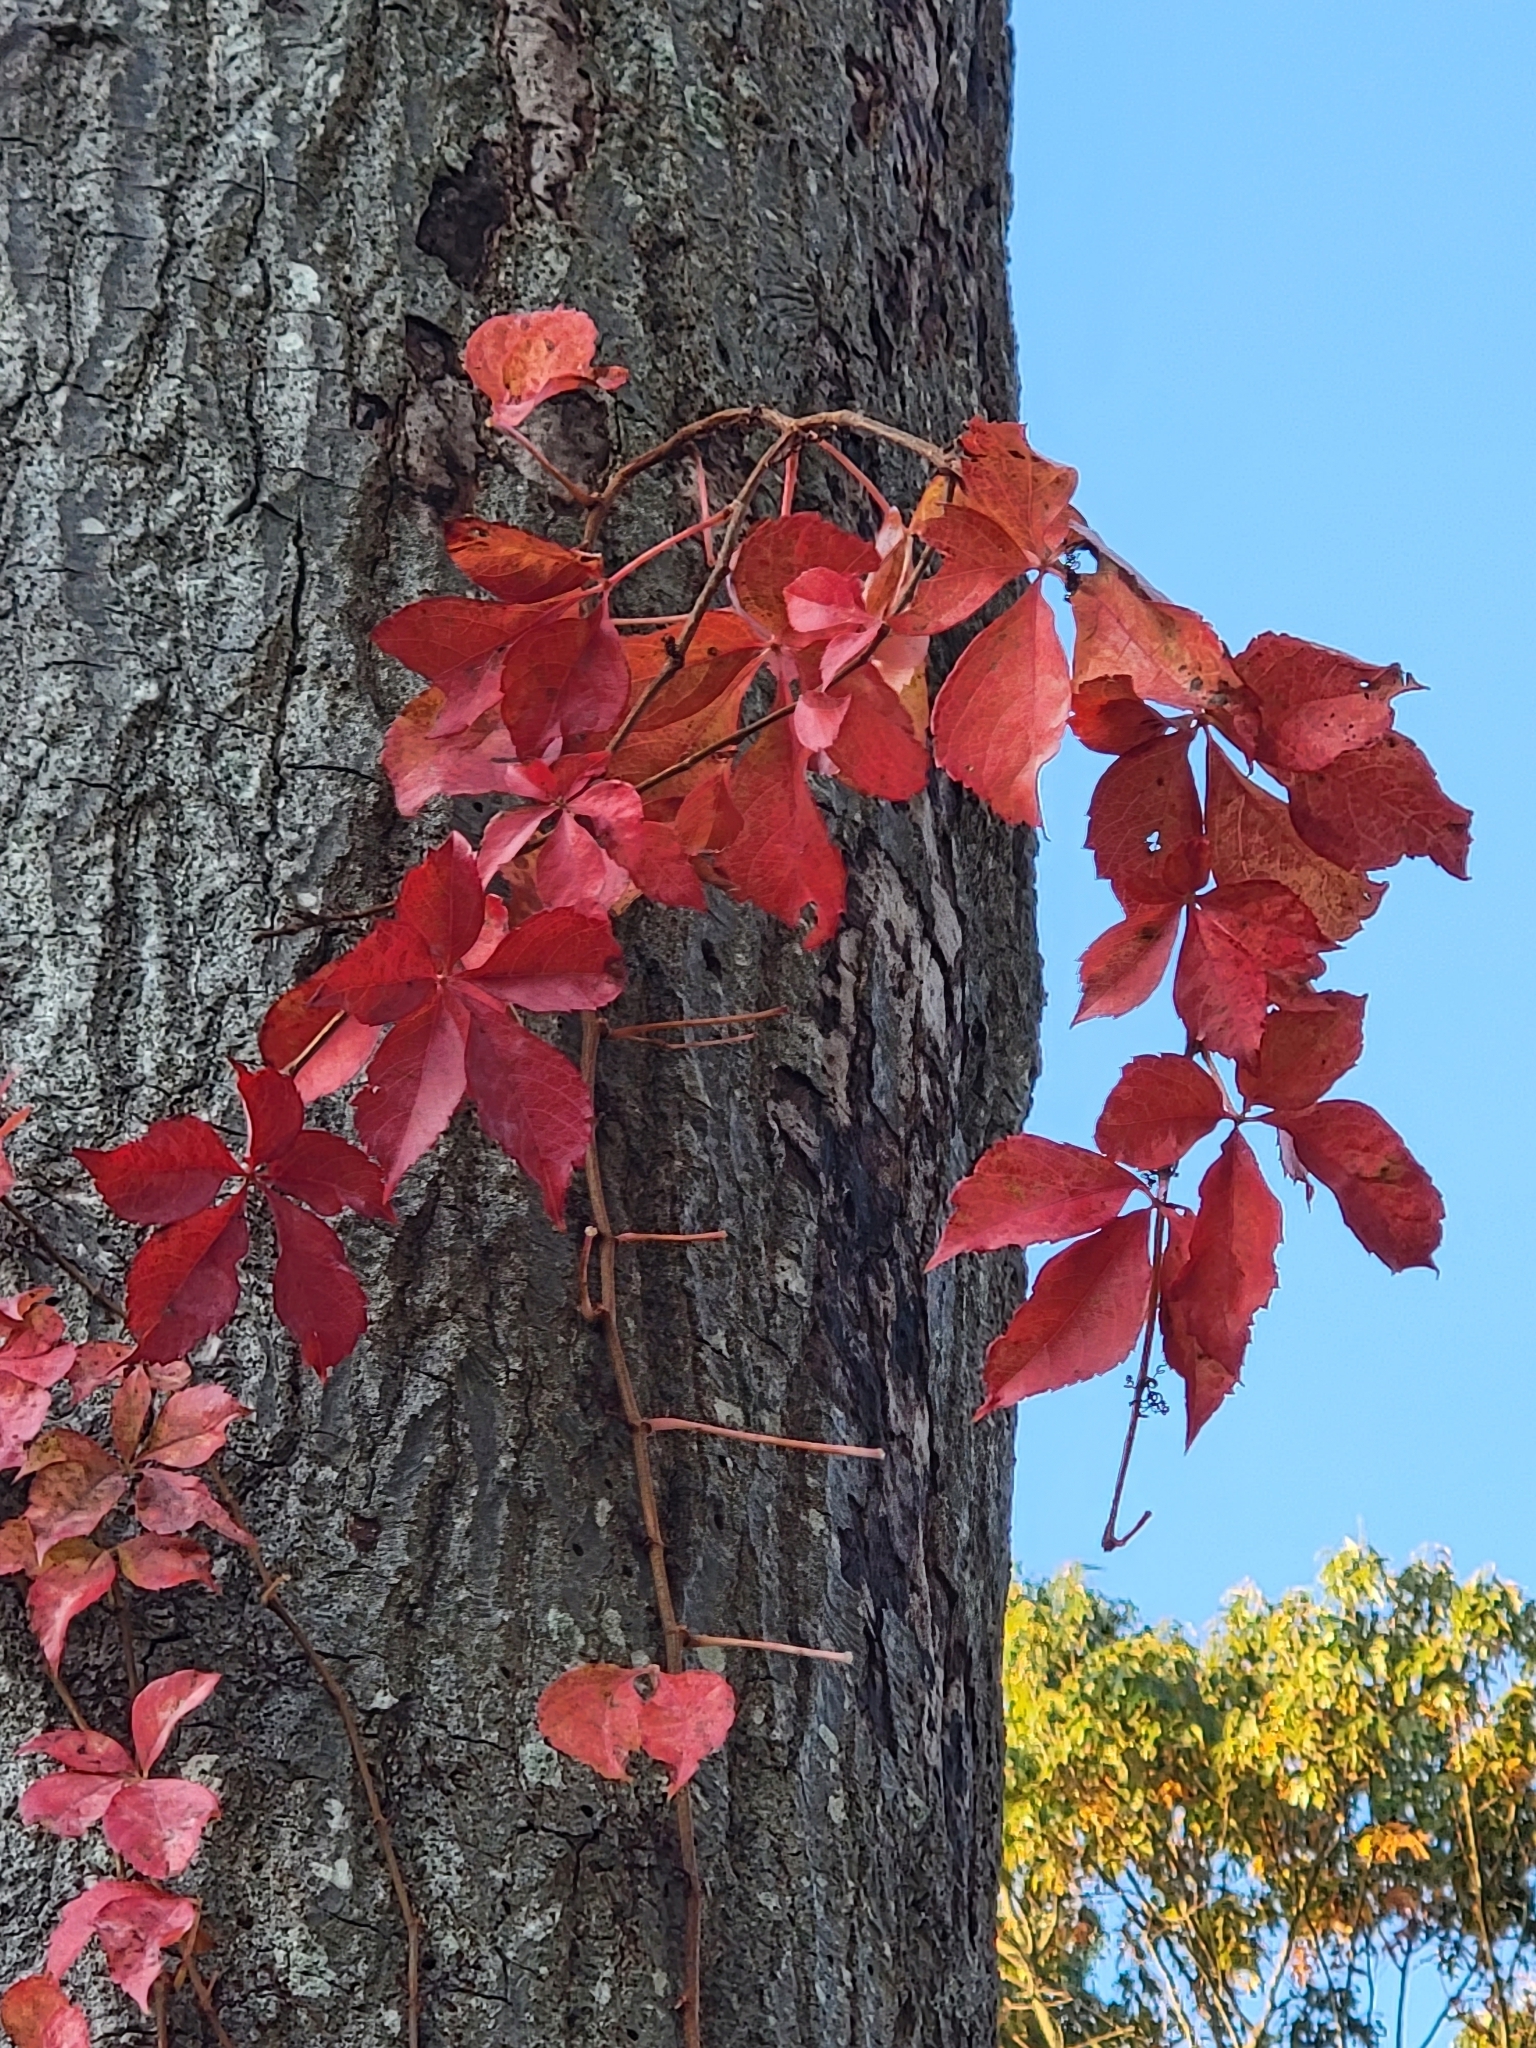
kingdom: Plantae
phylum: Tracheophyta
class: Magnoliopsida
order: Vitales
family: Vitaceae
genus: Parthenocissus
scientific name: Parthenocissus quinquefolia
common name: Virginia-creeper
